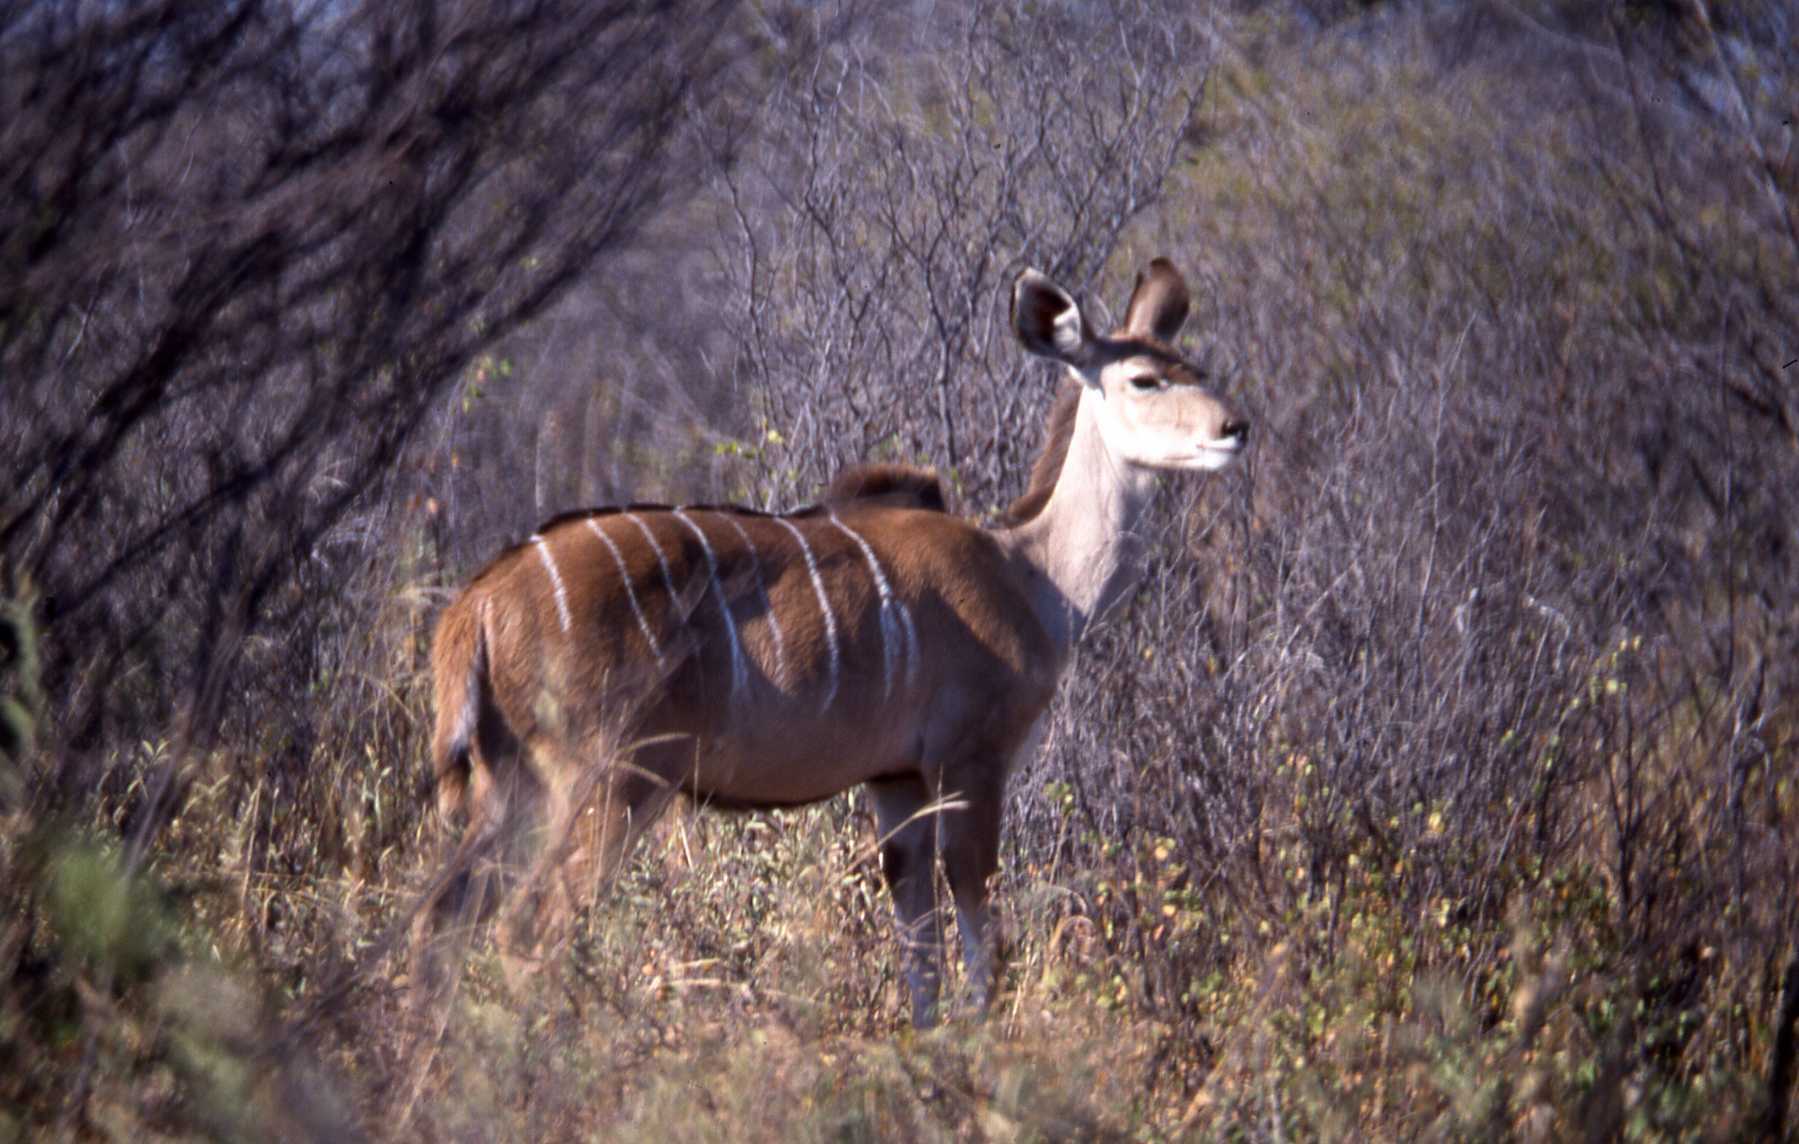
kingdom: Animalia
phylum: Chordata
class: Mammalia
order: Artiodactyla
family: Bovidae
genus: Tragelaphus
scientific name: Tragelaphus strepsiceros
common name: Greater kudu
